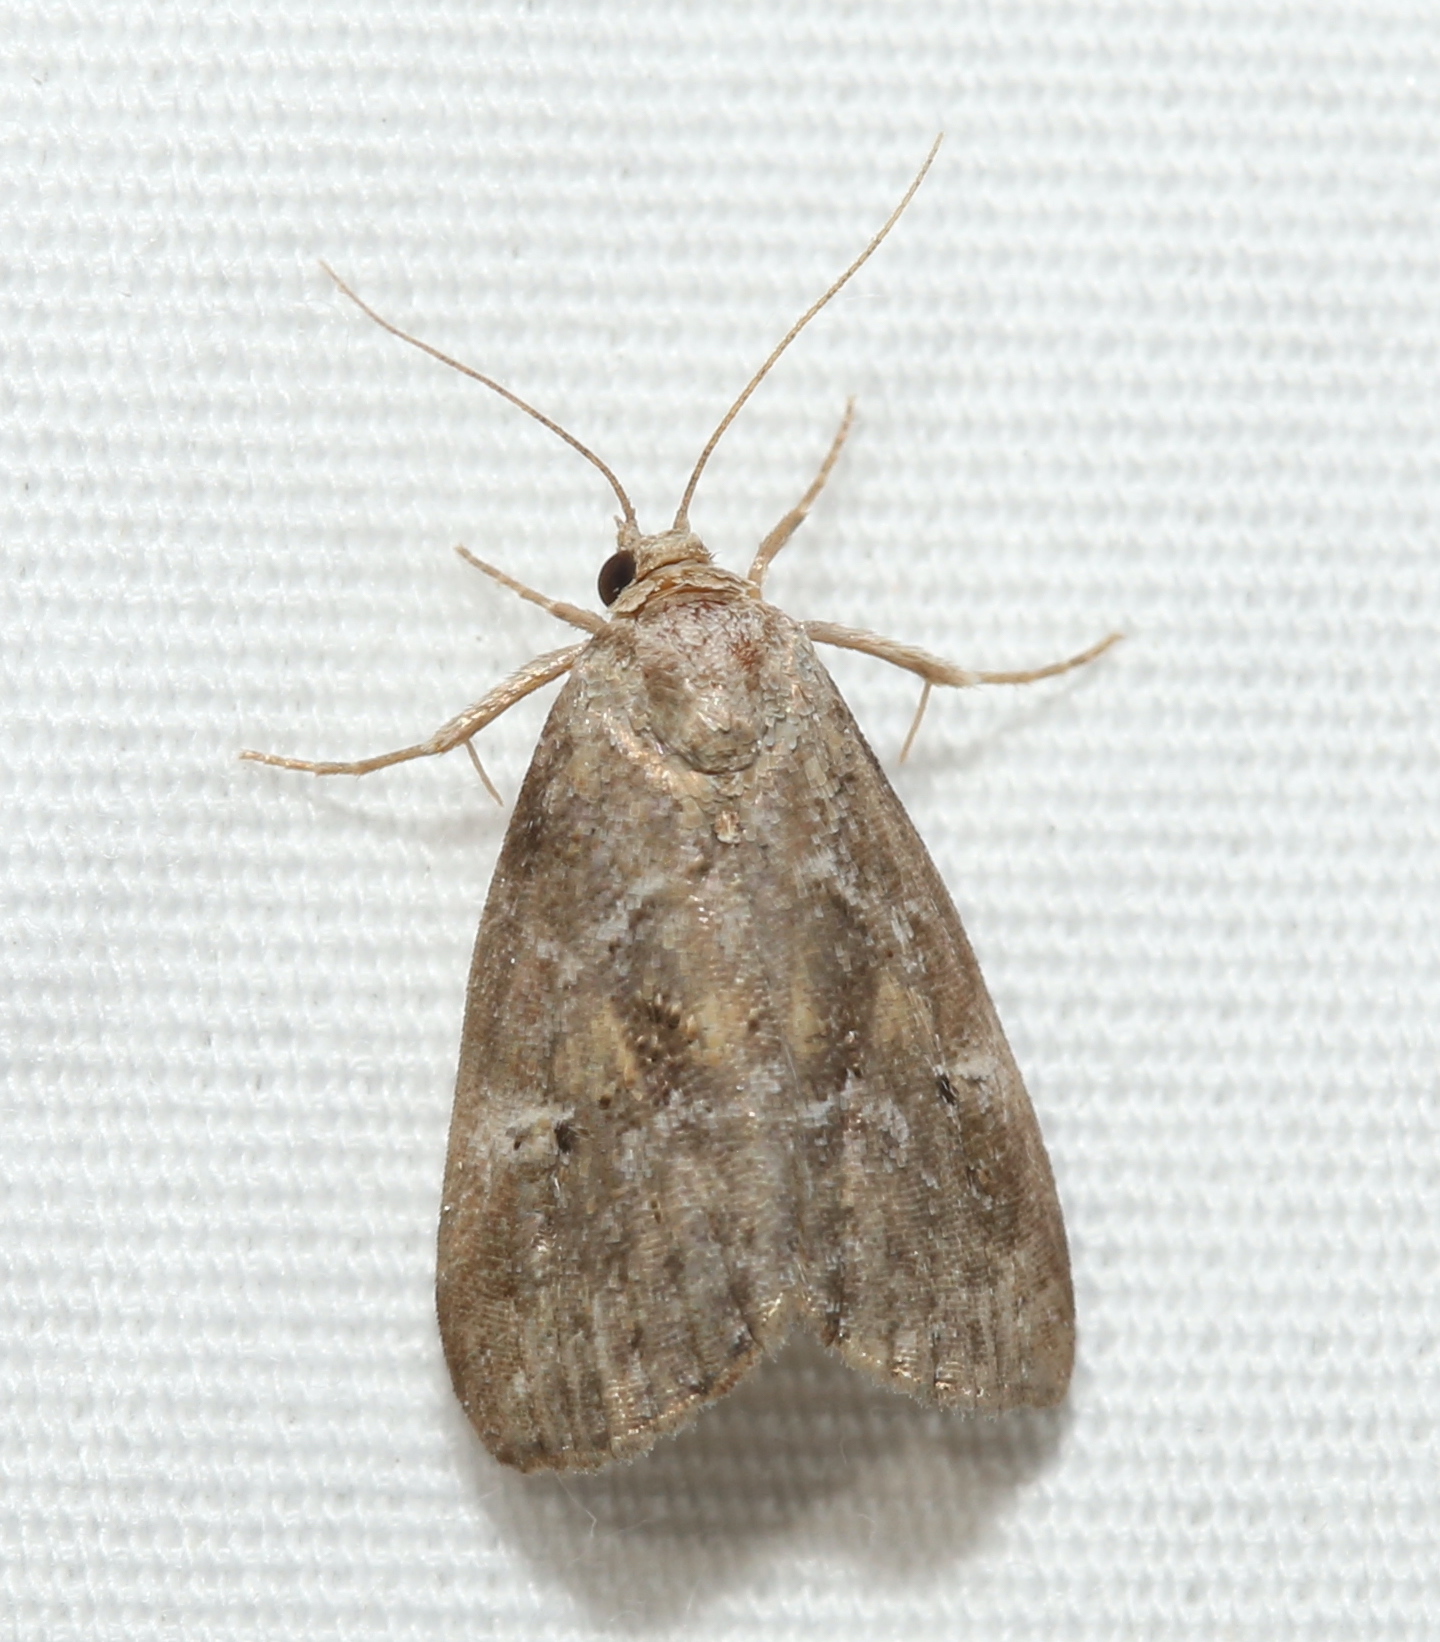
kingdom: Animalia
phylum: Arthropoda
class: Insecta
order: Lepidoptera
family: Erebidae
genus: Hyperstrotia
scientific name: Hyperstrotia nana
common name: White-lined graylet
